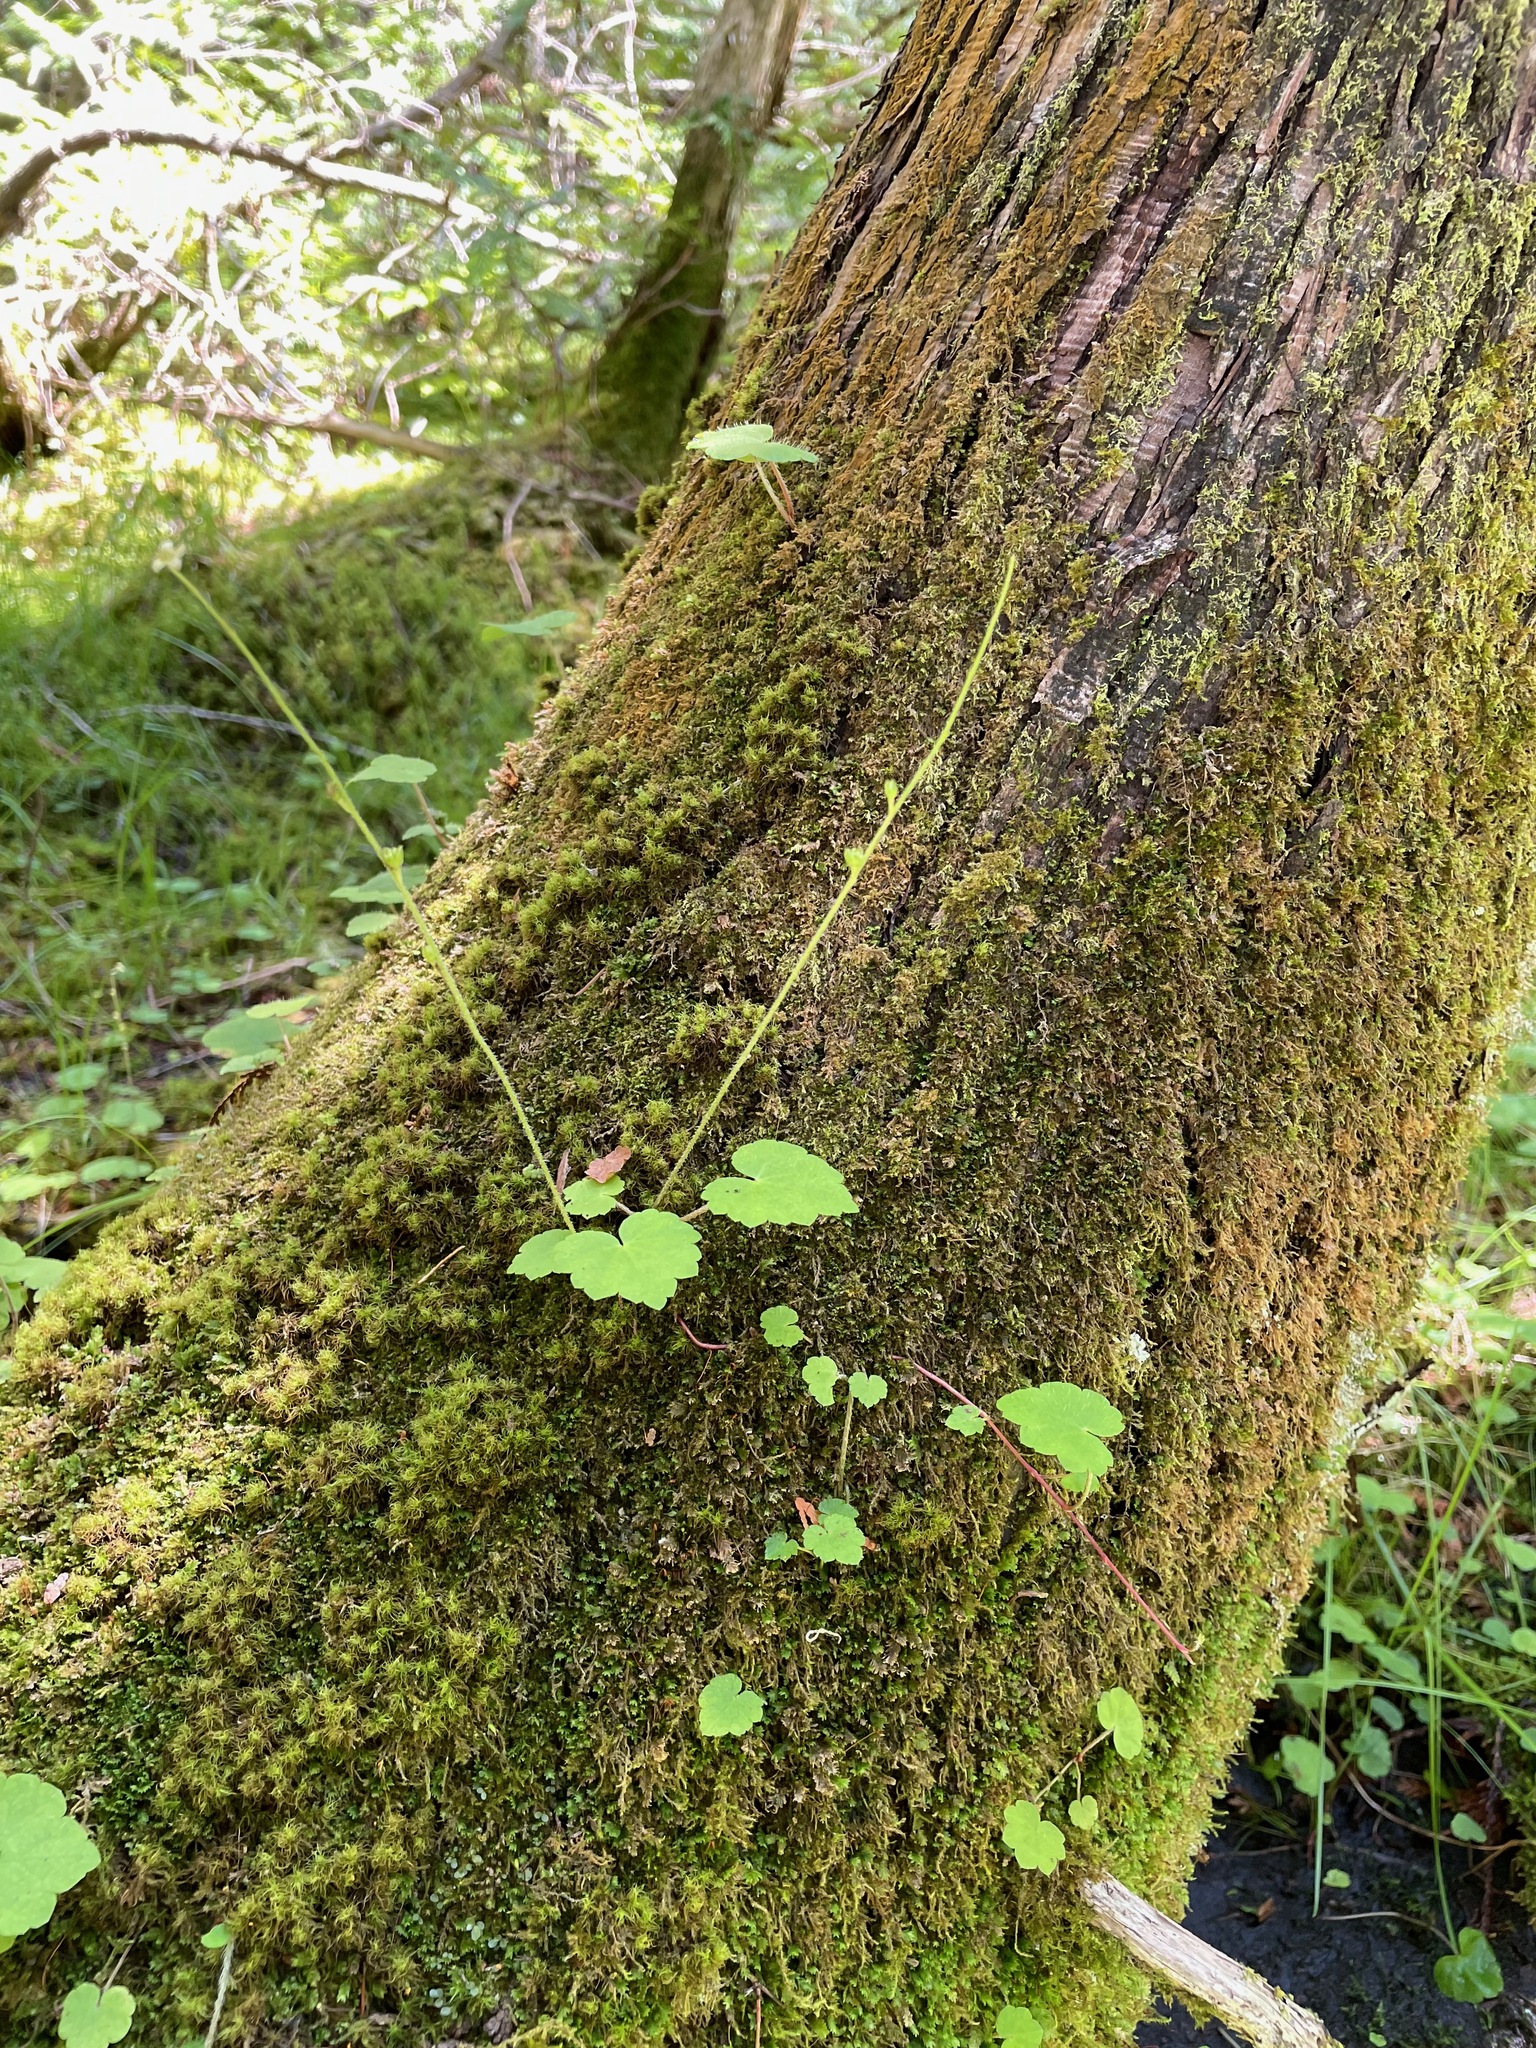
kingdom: Plantae
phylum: Tracheophyta
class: Magnoliopsida
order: Saxifragales
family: Saxifragaceae
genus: Mitella
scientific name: Mitella nuda
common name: Bare-stemmed bishop's-cap
